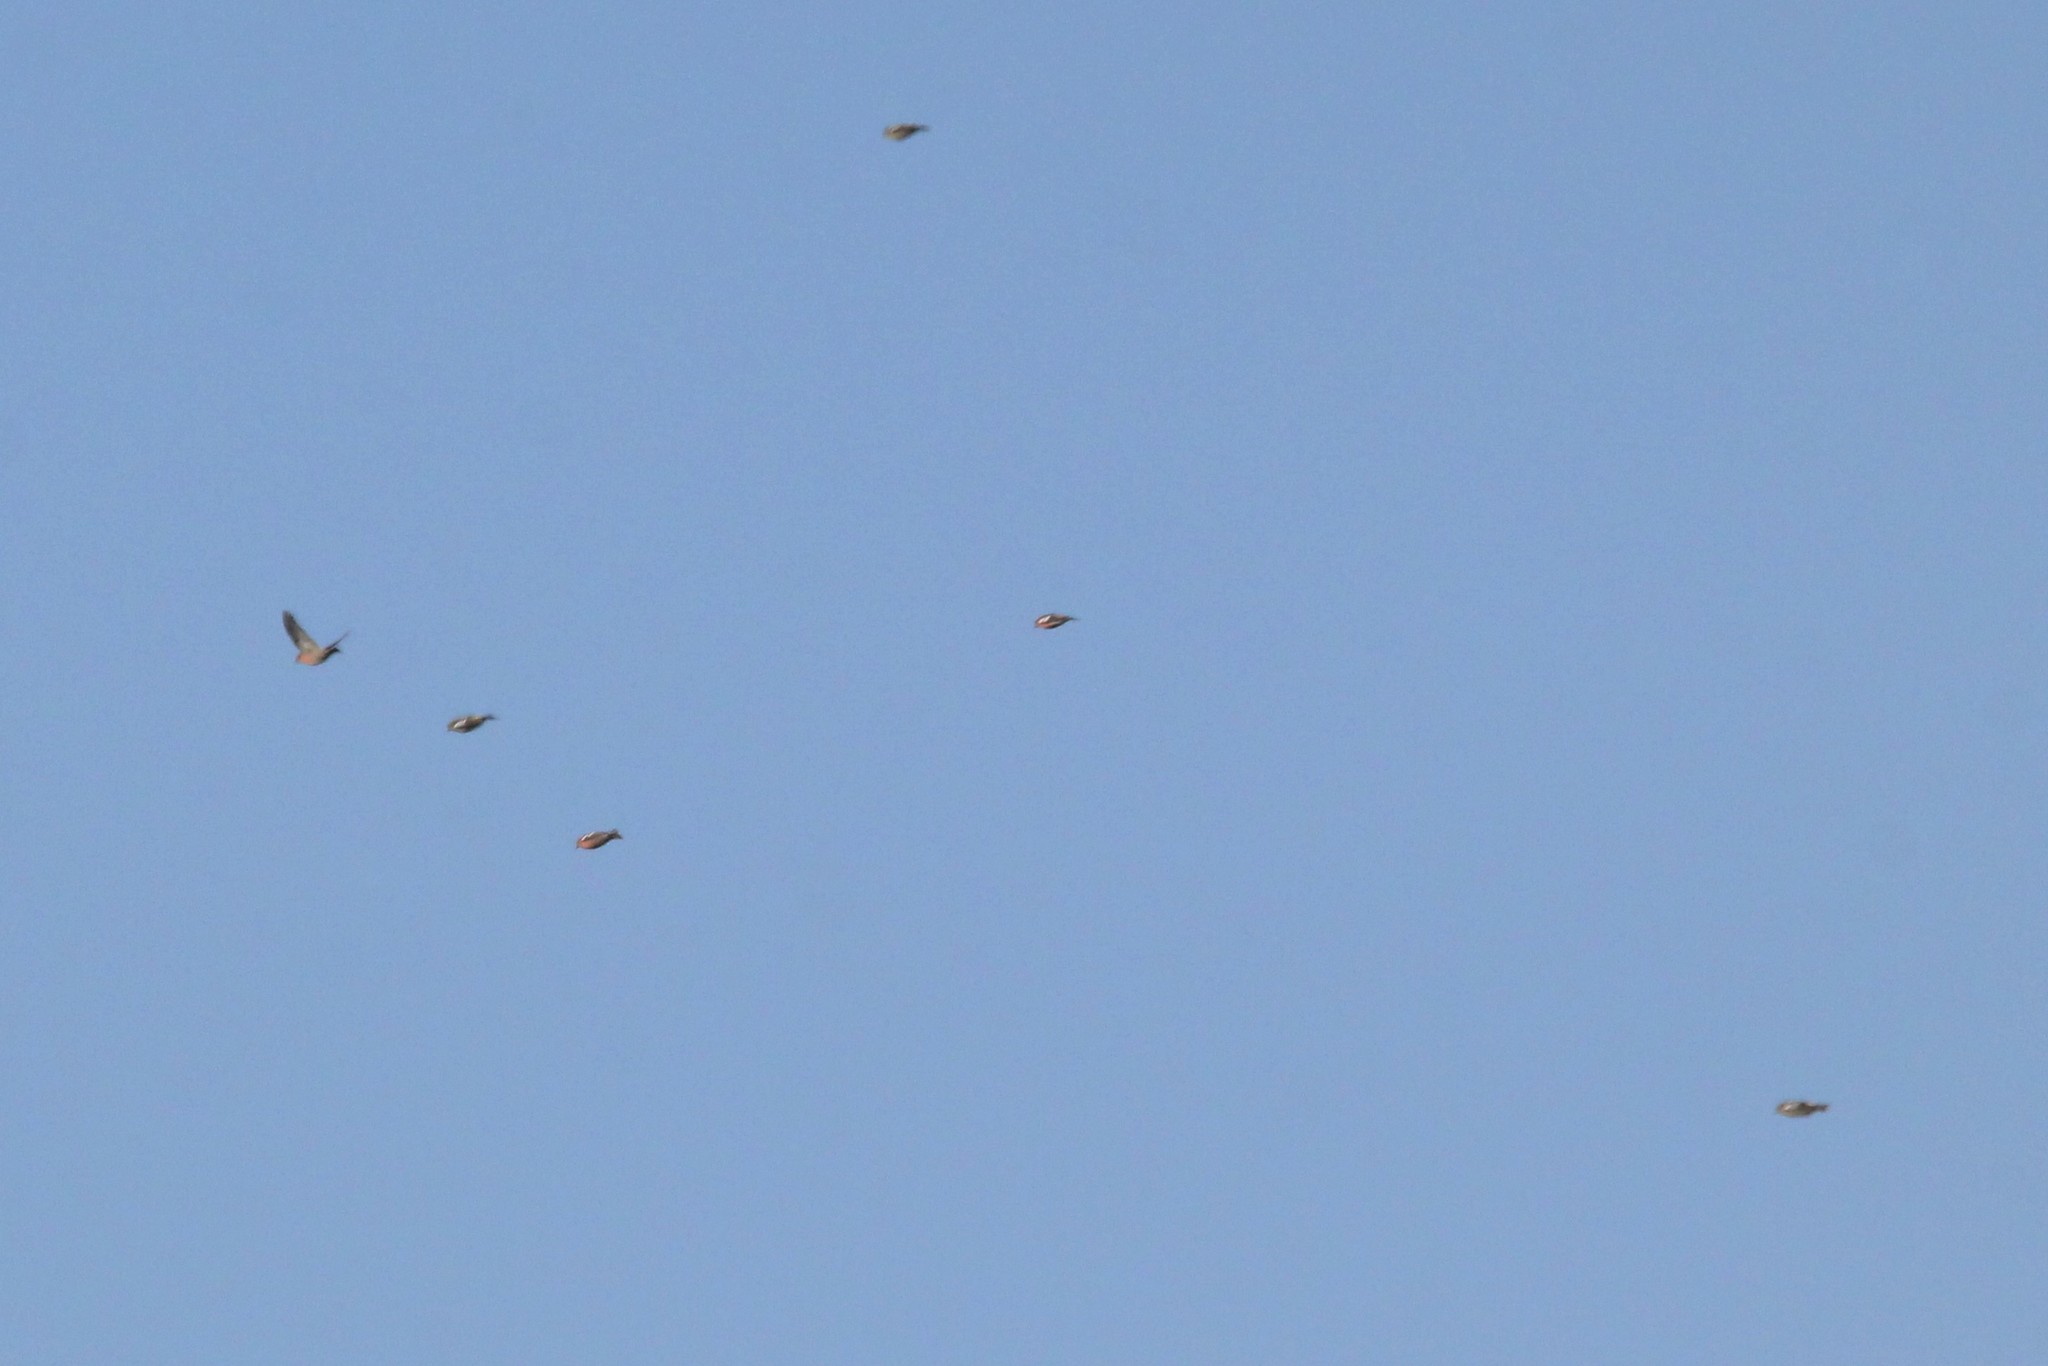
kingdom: Animalia
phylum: Chordata
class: Aves
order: Passeriformes
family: Fringillidae
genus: Loxia
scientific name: Loxia leucoptera
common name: Two-barred crossbill
